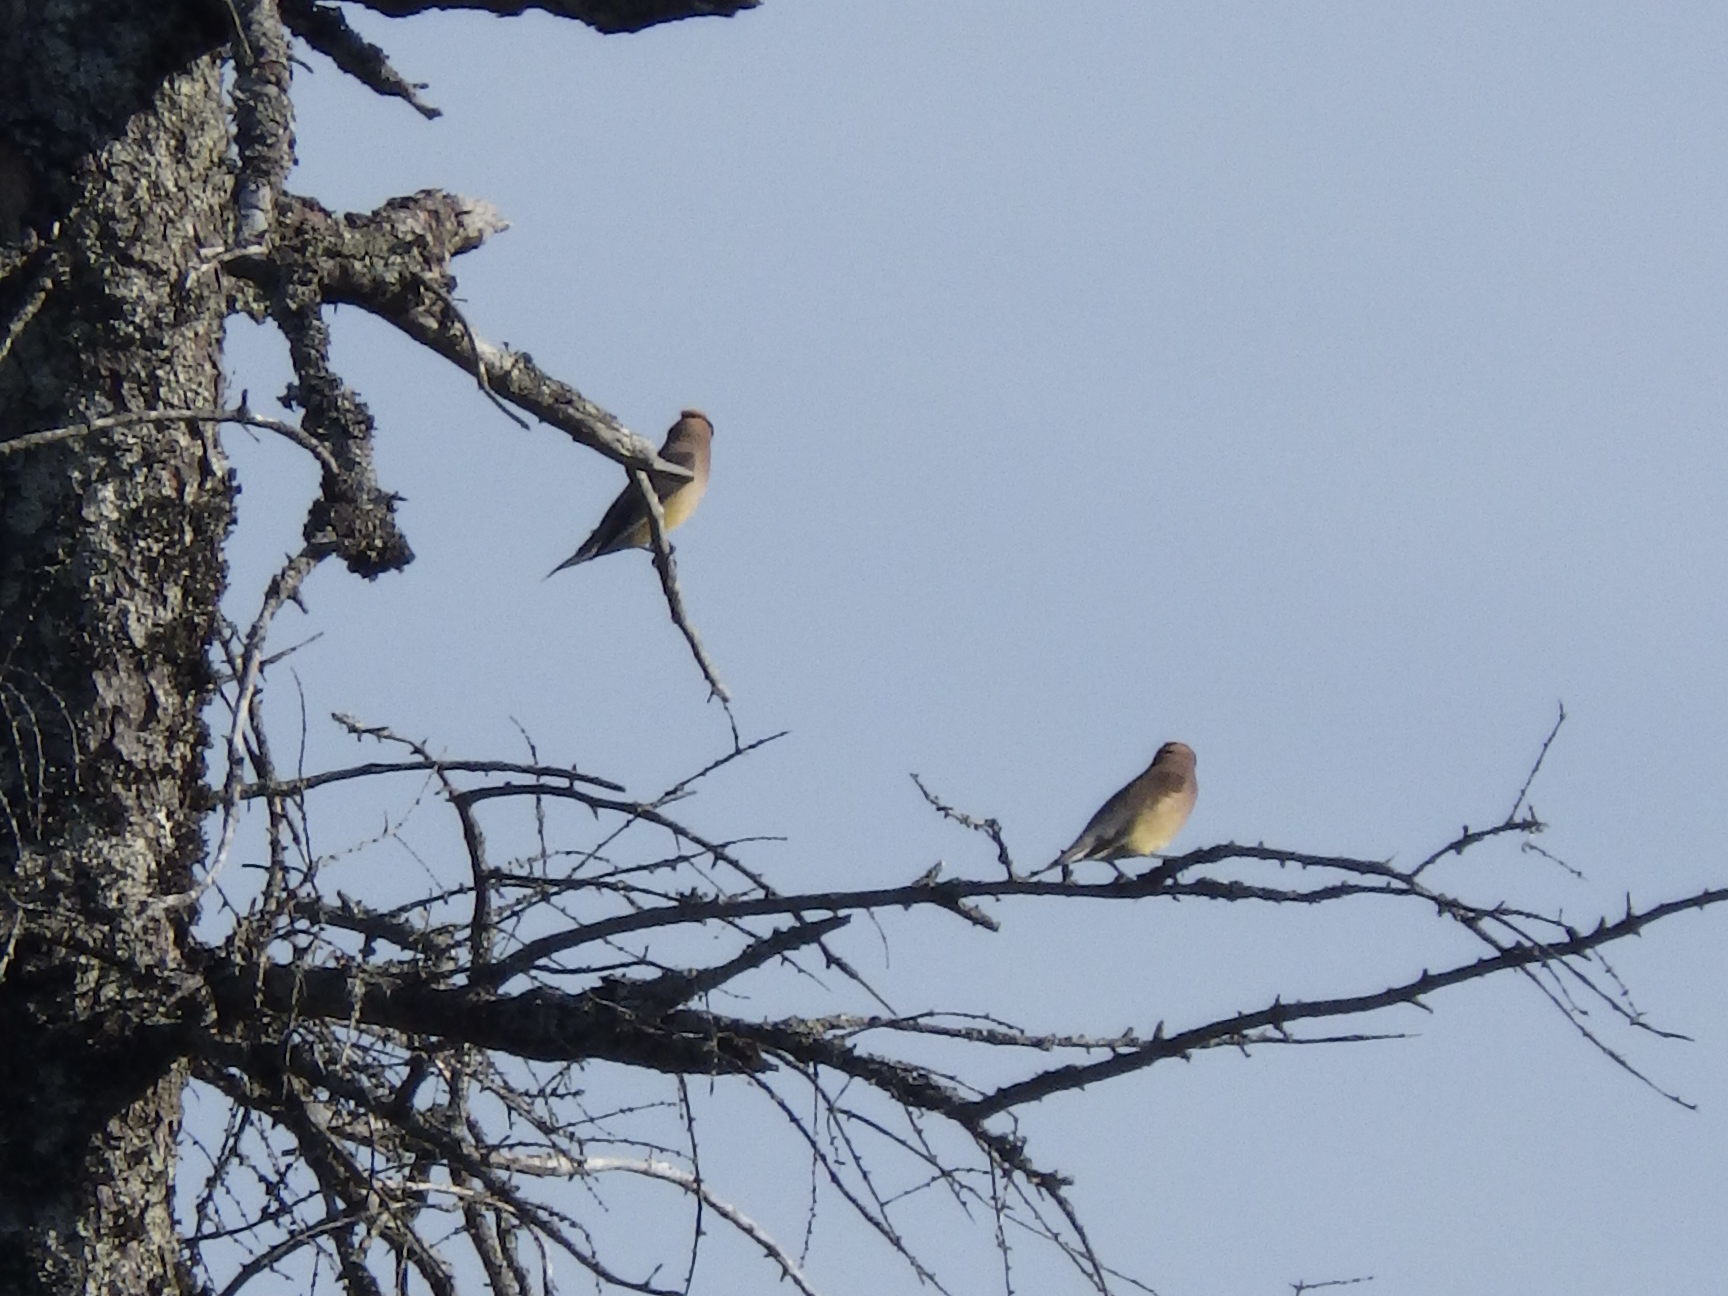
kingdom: Animalia
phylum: Chordata
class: Aves
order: Passeriformes
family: Bombycillidae
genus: Bombycilla
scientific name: Bombycilla cedrorum
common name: Cedar waxwing
